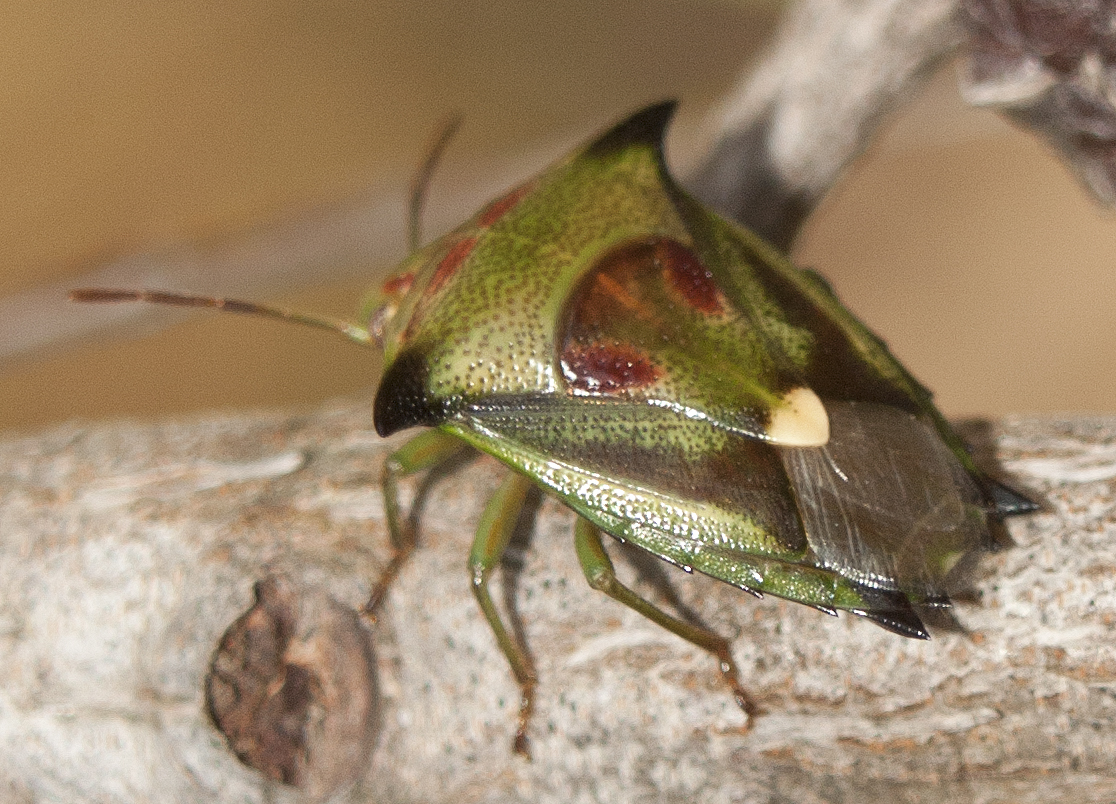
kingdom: Animalia
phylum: Arthropoda
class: Insecta
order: Hemiptera
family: Pentatomidae
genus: Morna
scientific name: Morna
